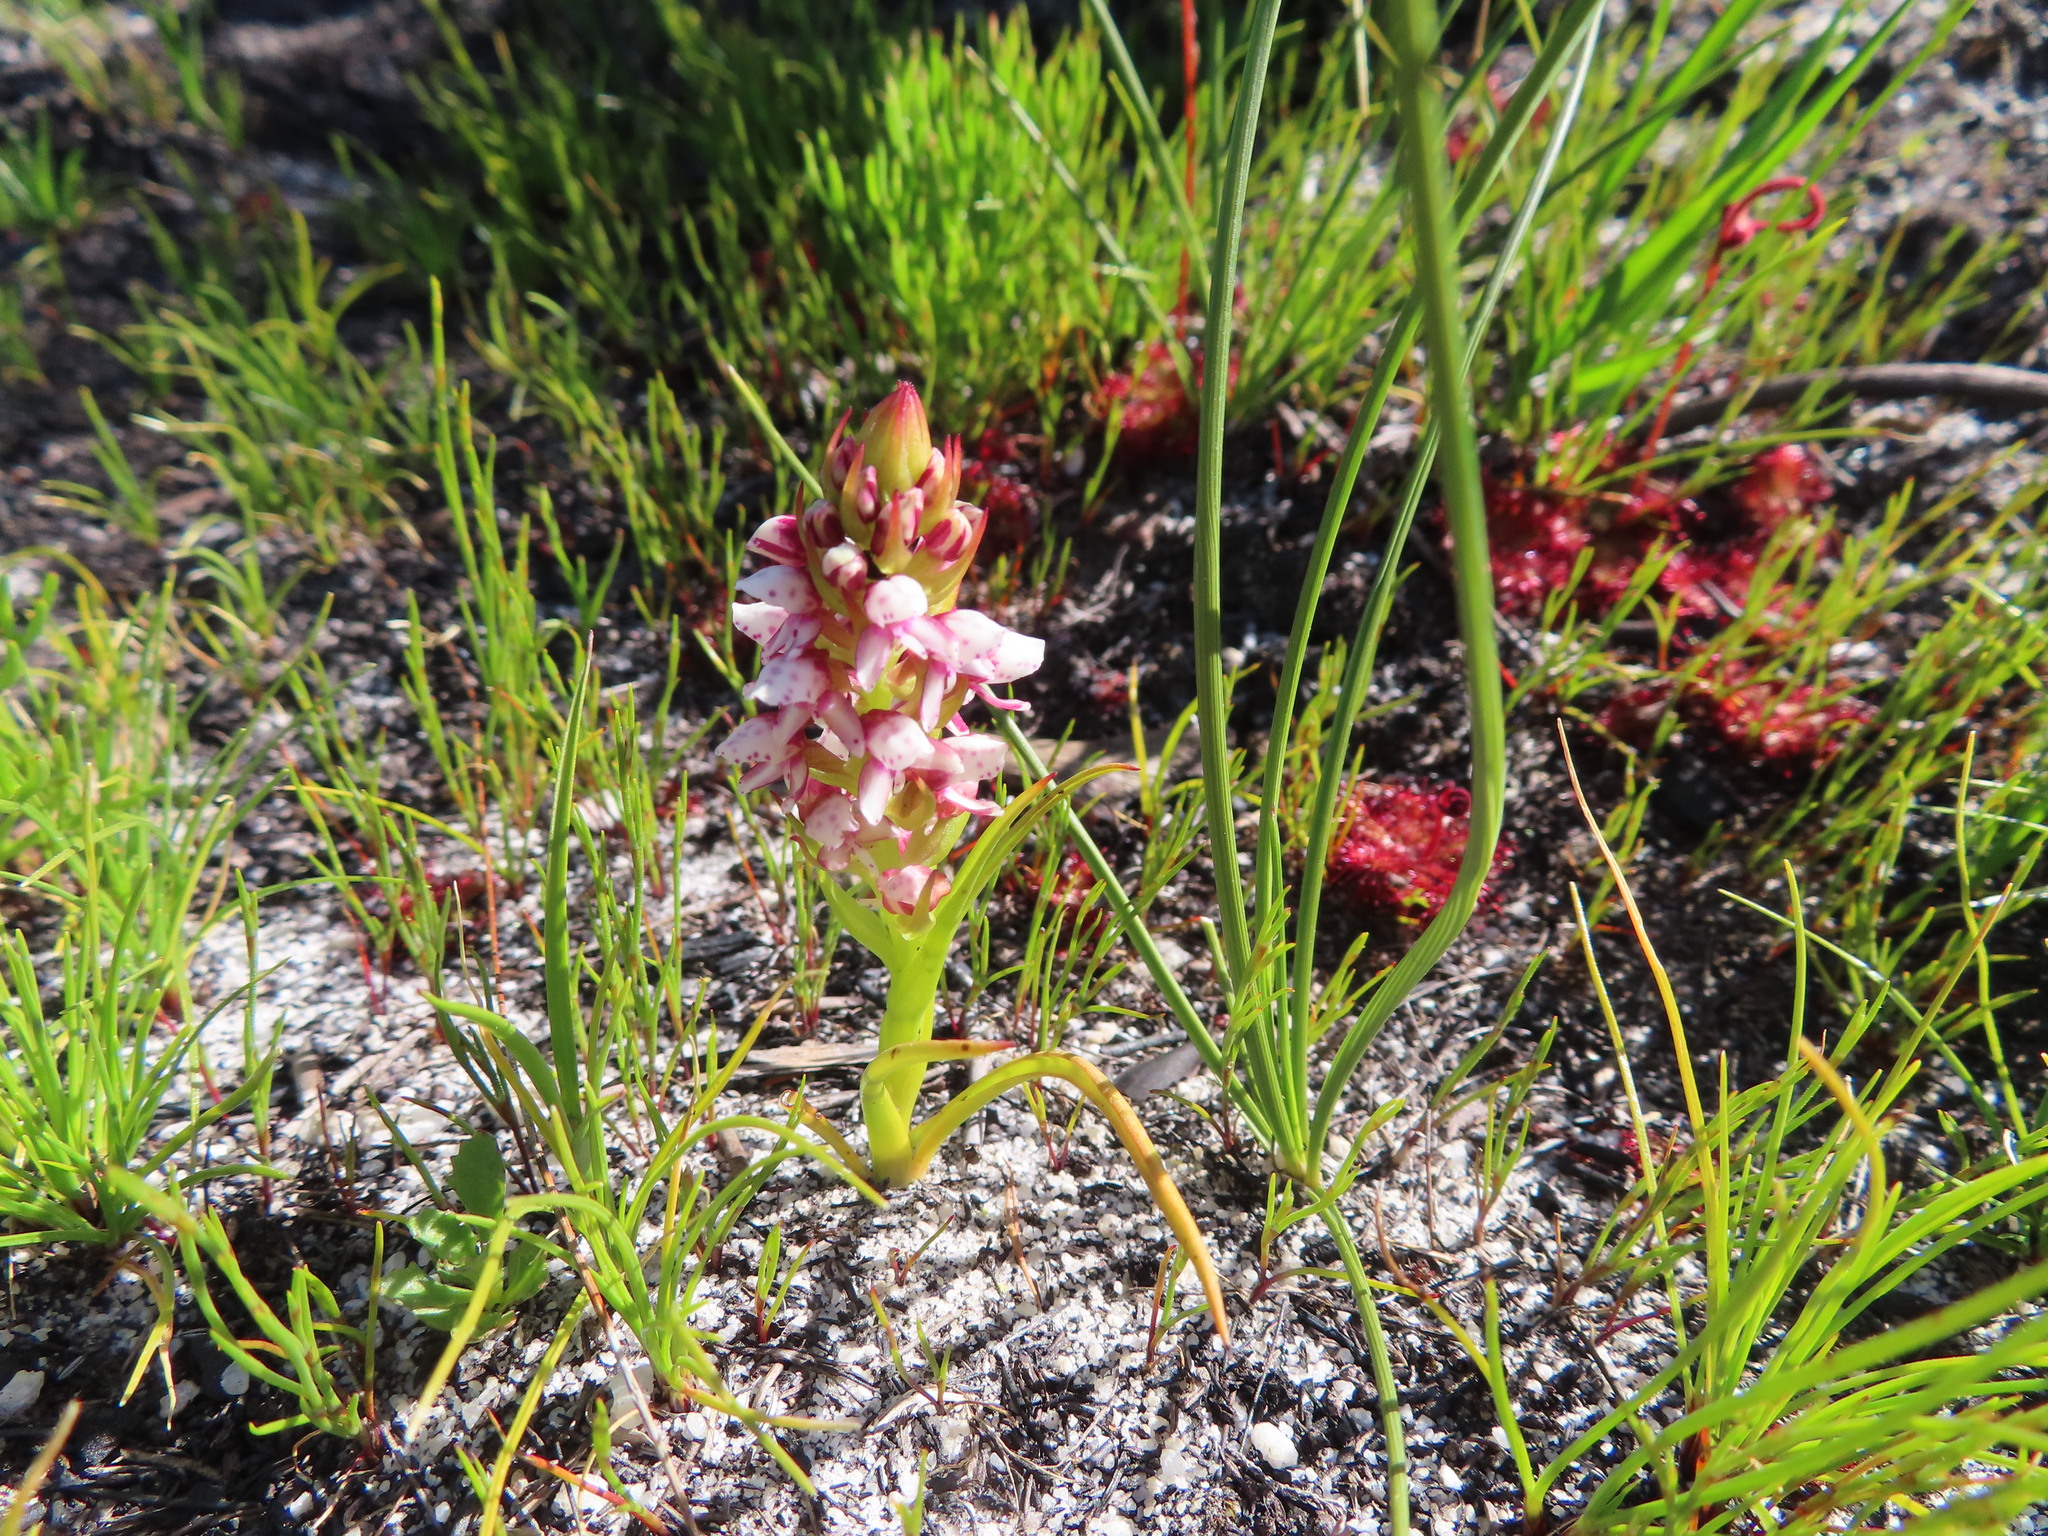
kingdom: Plantae
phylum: Tracheophyta
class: Liliopsida
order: Asparagales
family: Orchidaceae
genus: Disa
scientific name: Disa obtusa
